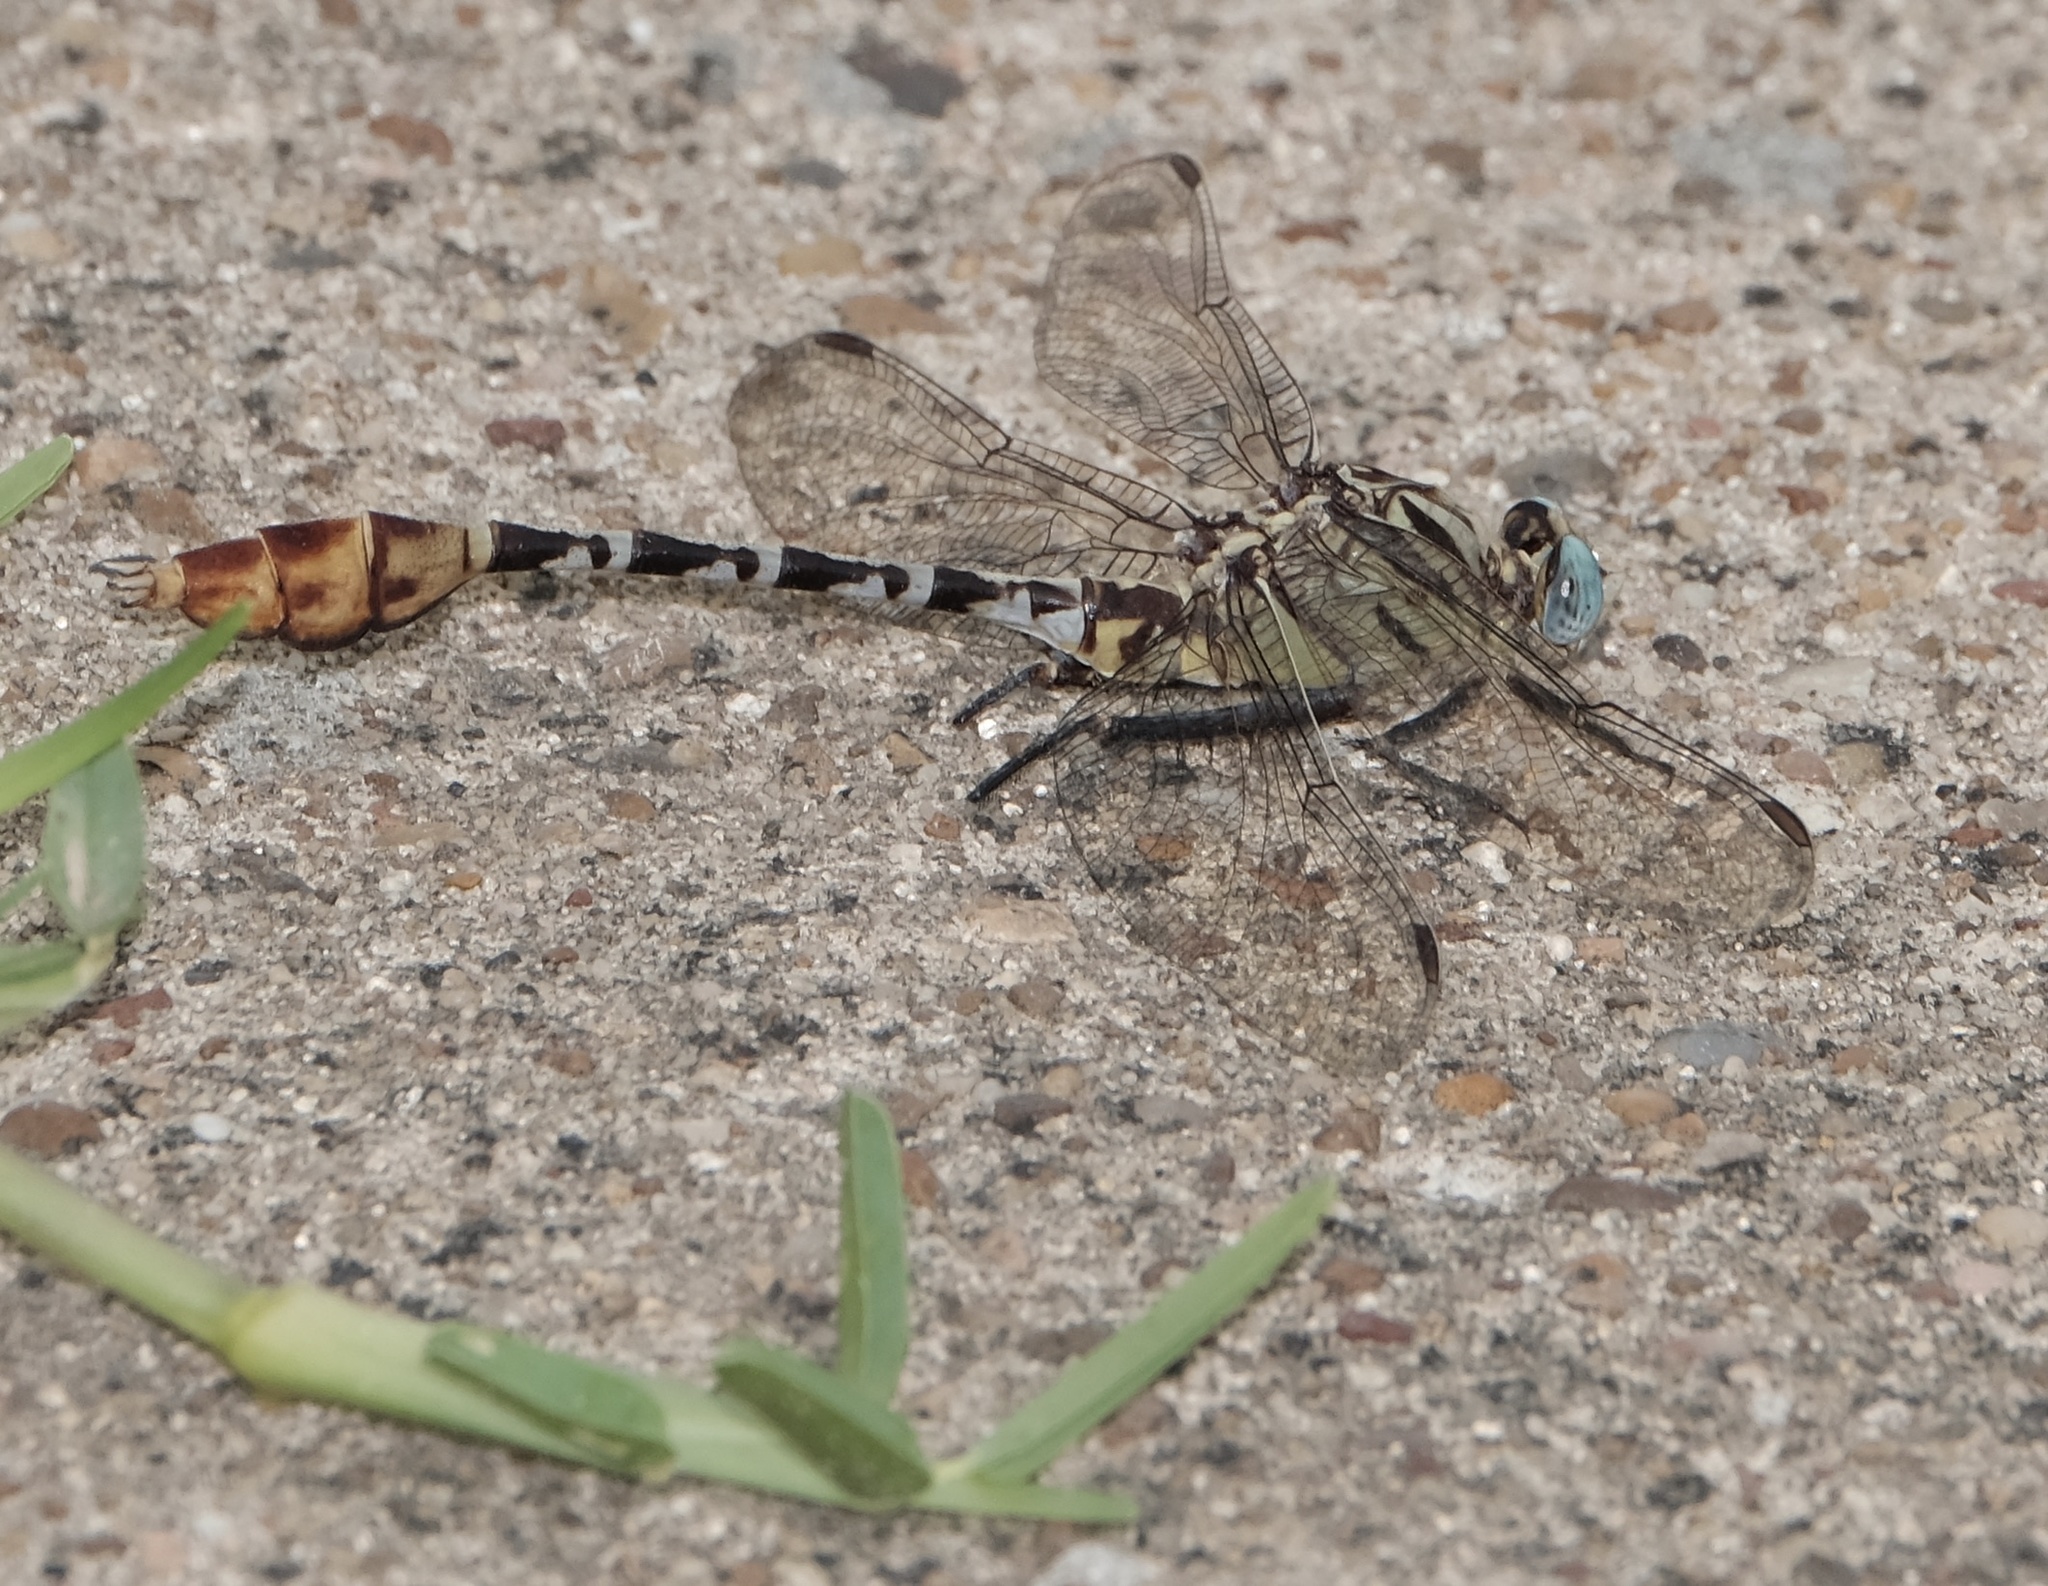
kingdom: Animalia
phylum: Arthropoda
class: Insecta
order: Odonata
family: Gomphidae
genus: Dromogomphus
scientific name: Dromogomphus spoliatus
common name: Flag-tailed spinyleg
